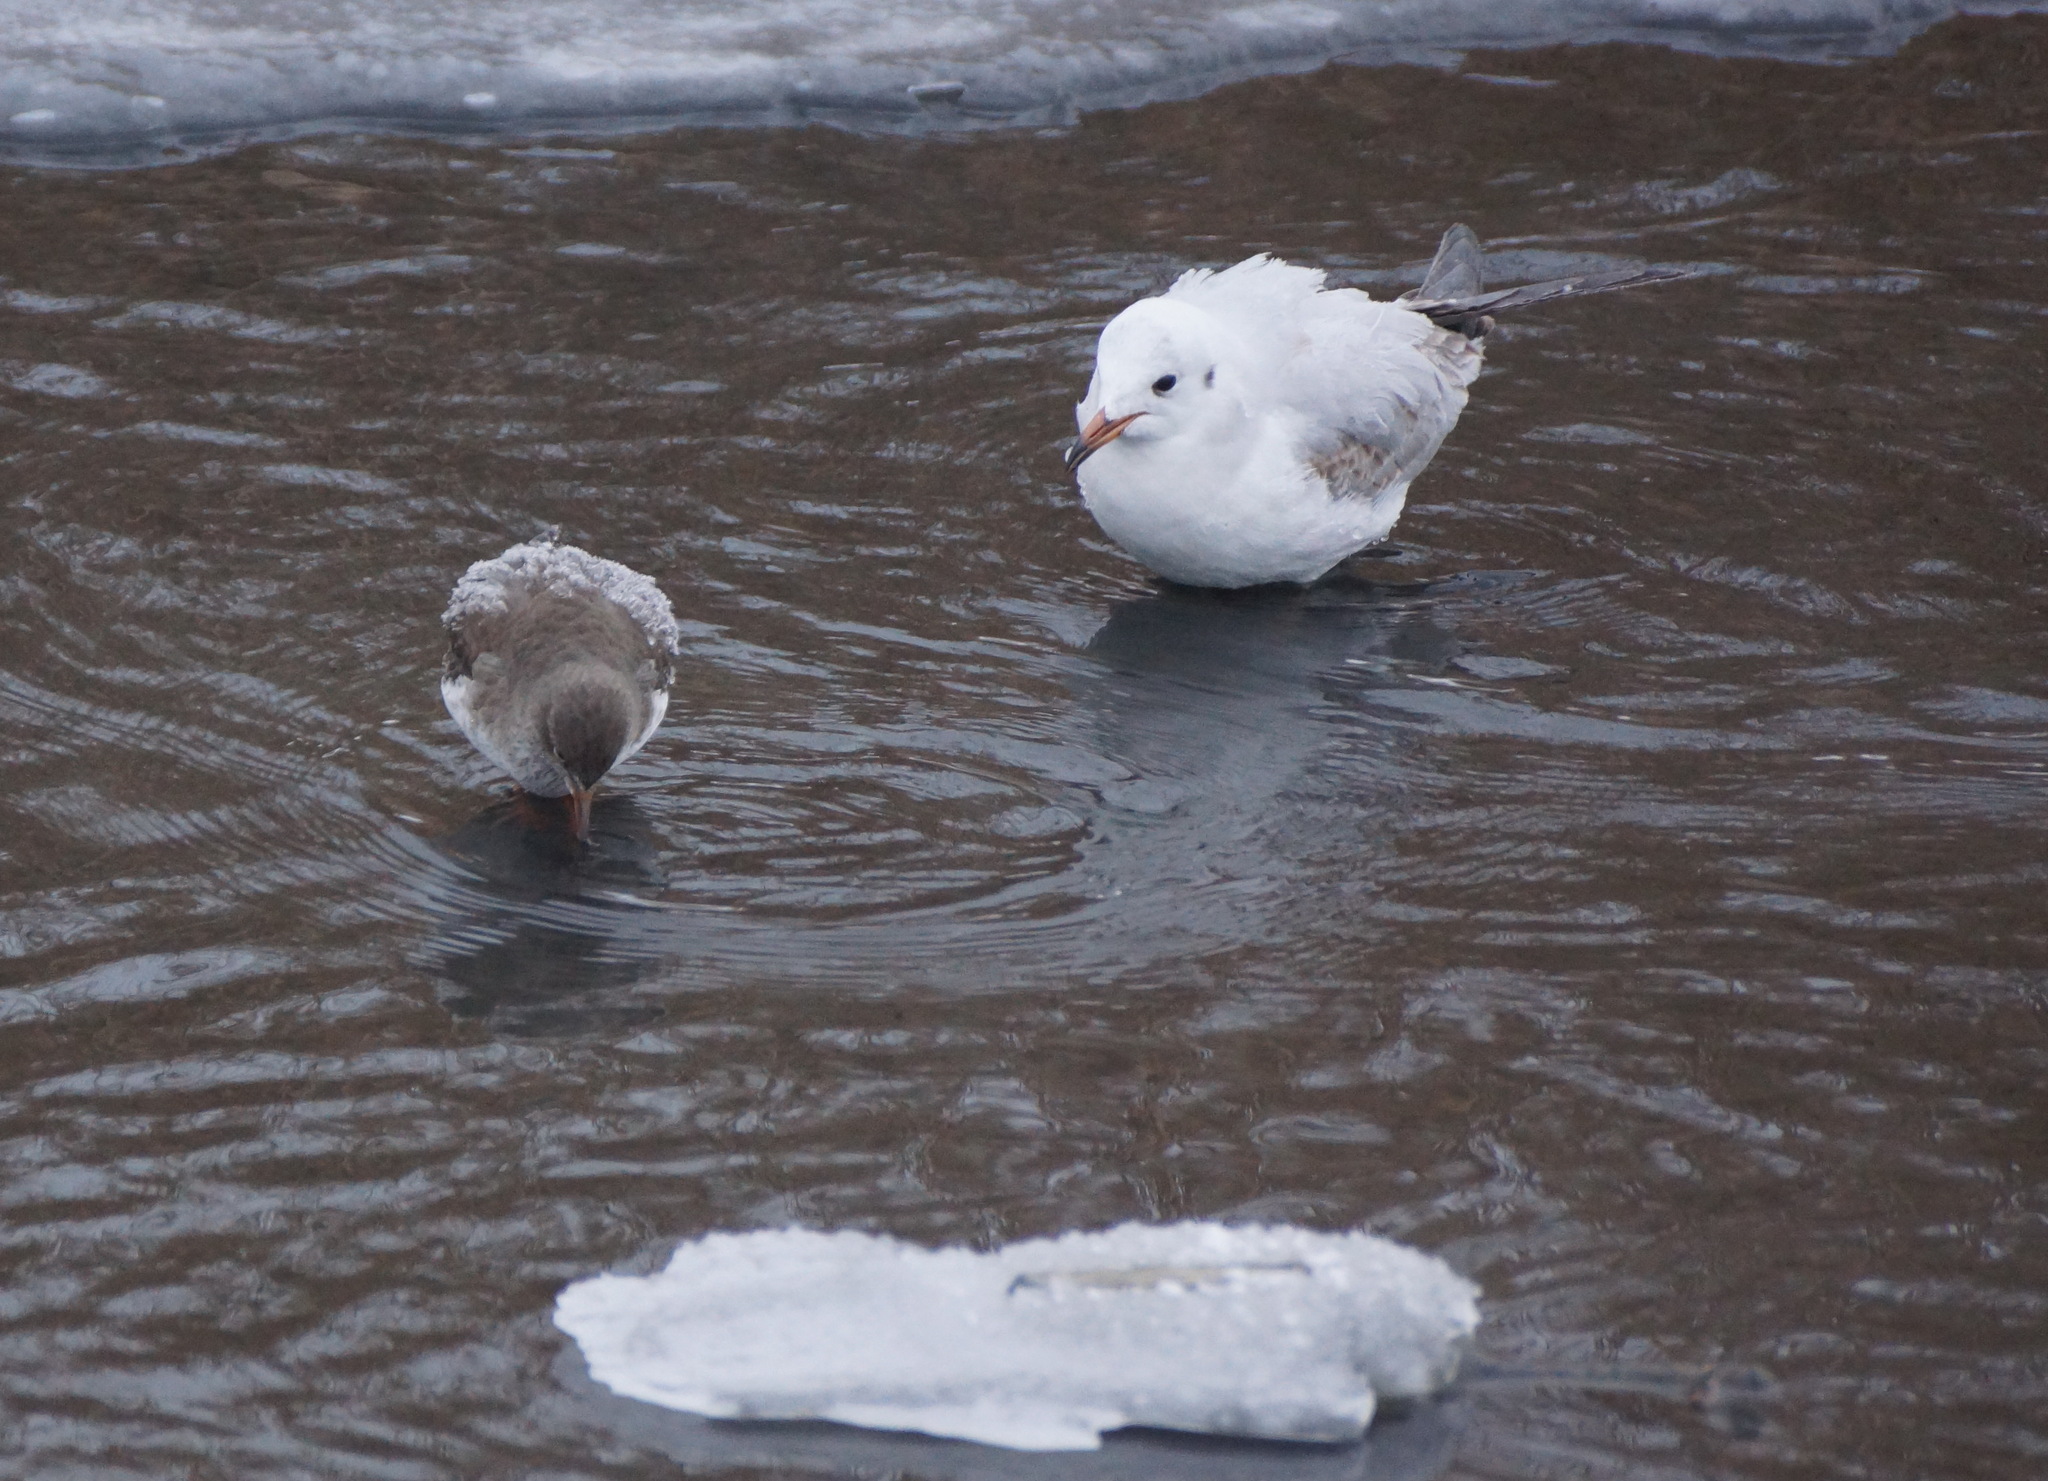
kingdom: Animalia
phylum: Chordata
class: Aves
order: Charadriiformes
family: Scolopacidae
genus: Tringa
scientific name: Tringa totanus
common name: Common redshank
